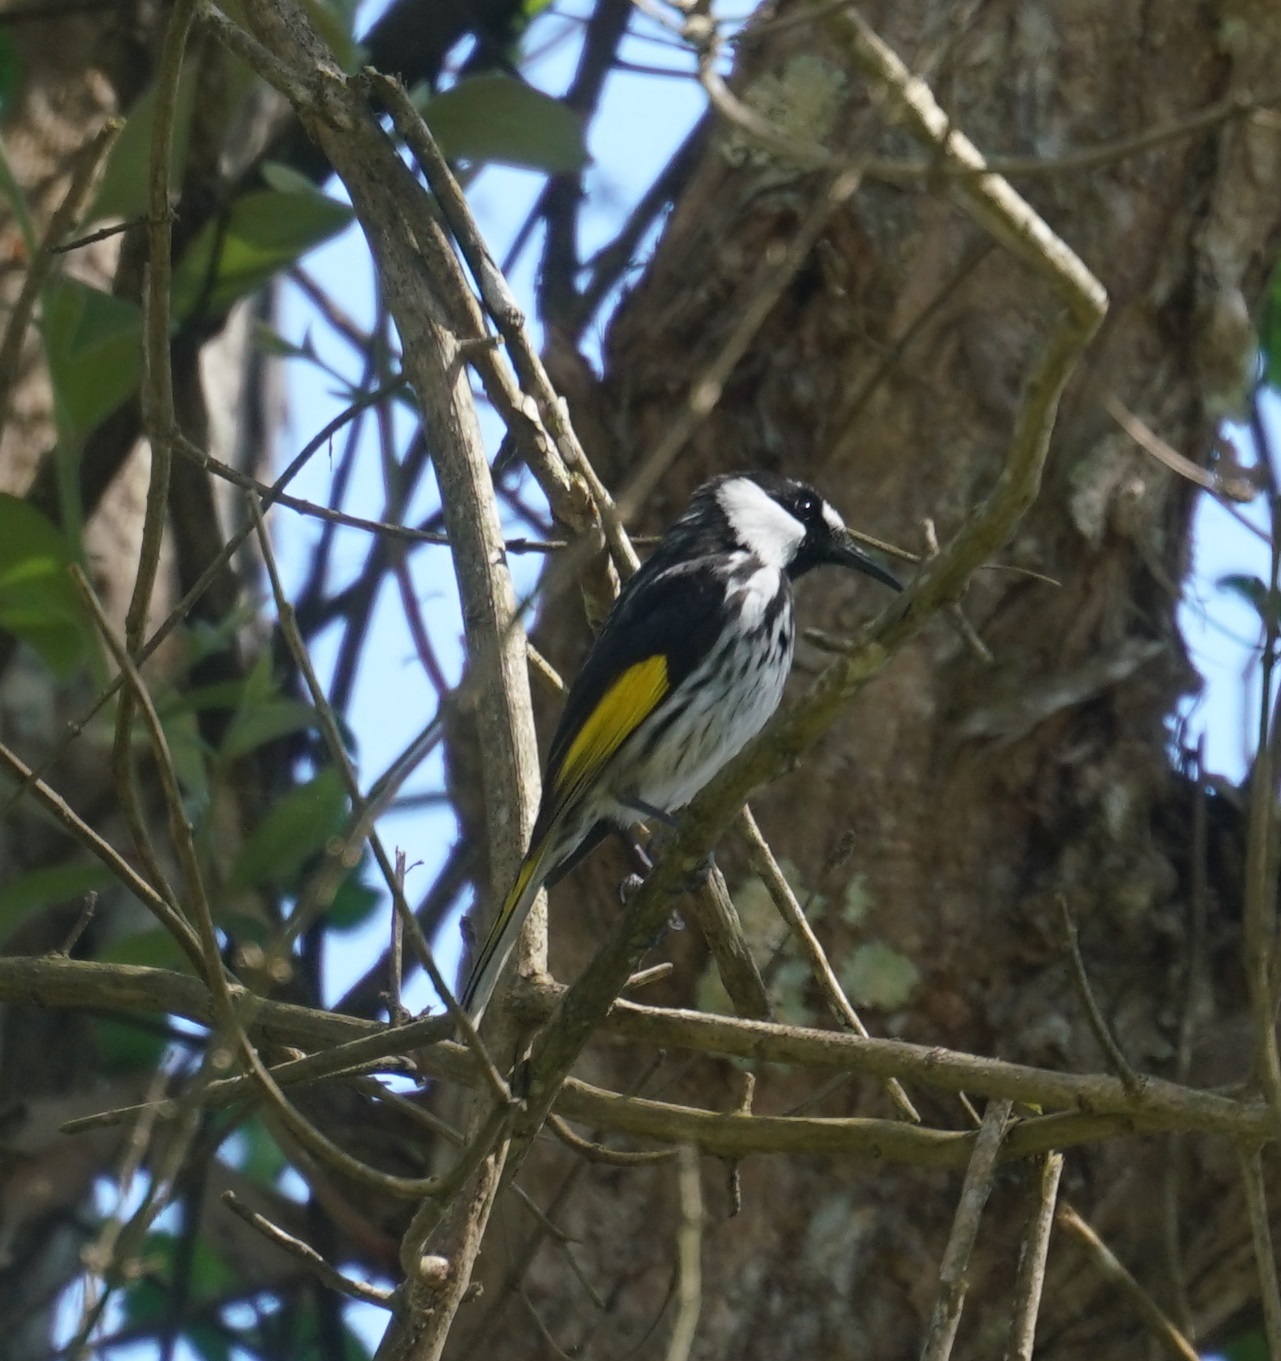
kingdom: Animalia
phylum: Chordata
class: Aves
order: Passeriformes
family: Meliphagidae
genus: Phylidonyris
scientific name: Phylidonyris niger
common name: White-cheeked honeyeater
